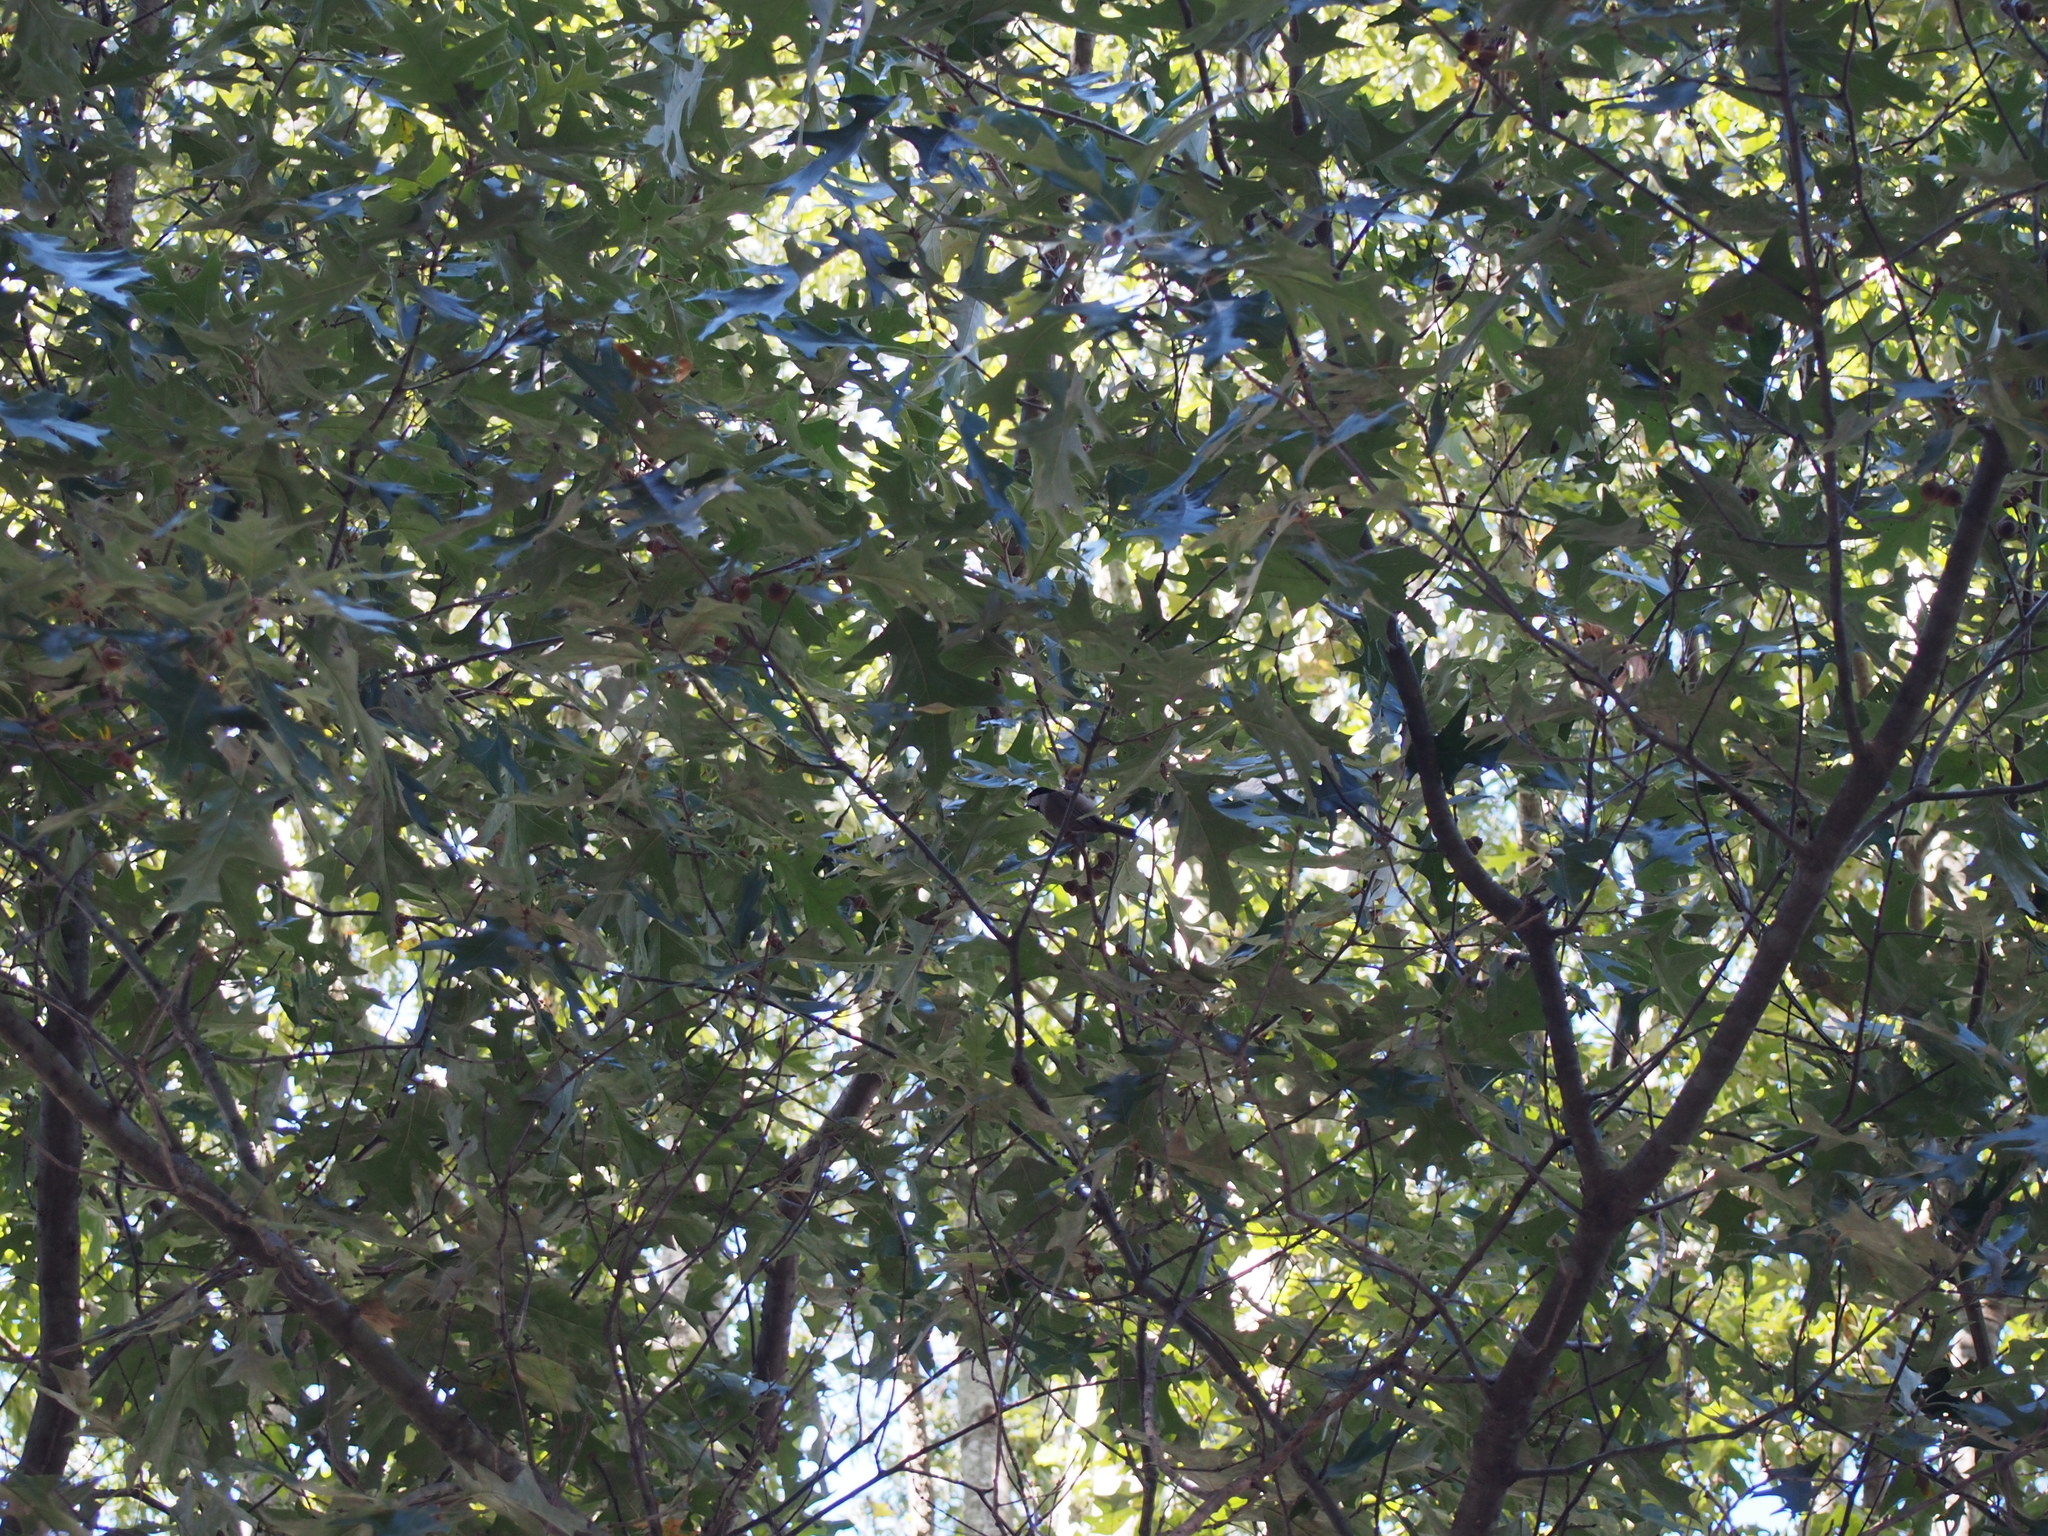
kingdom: Animalia
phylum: Chordata
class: Aves
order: Passeriformes
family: Paridae
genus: Poecile
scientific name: Poecile carolinensis
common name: Carolina chickadee
